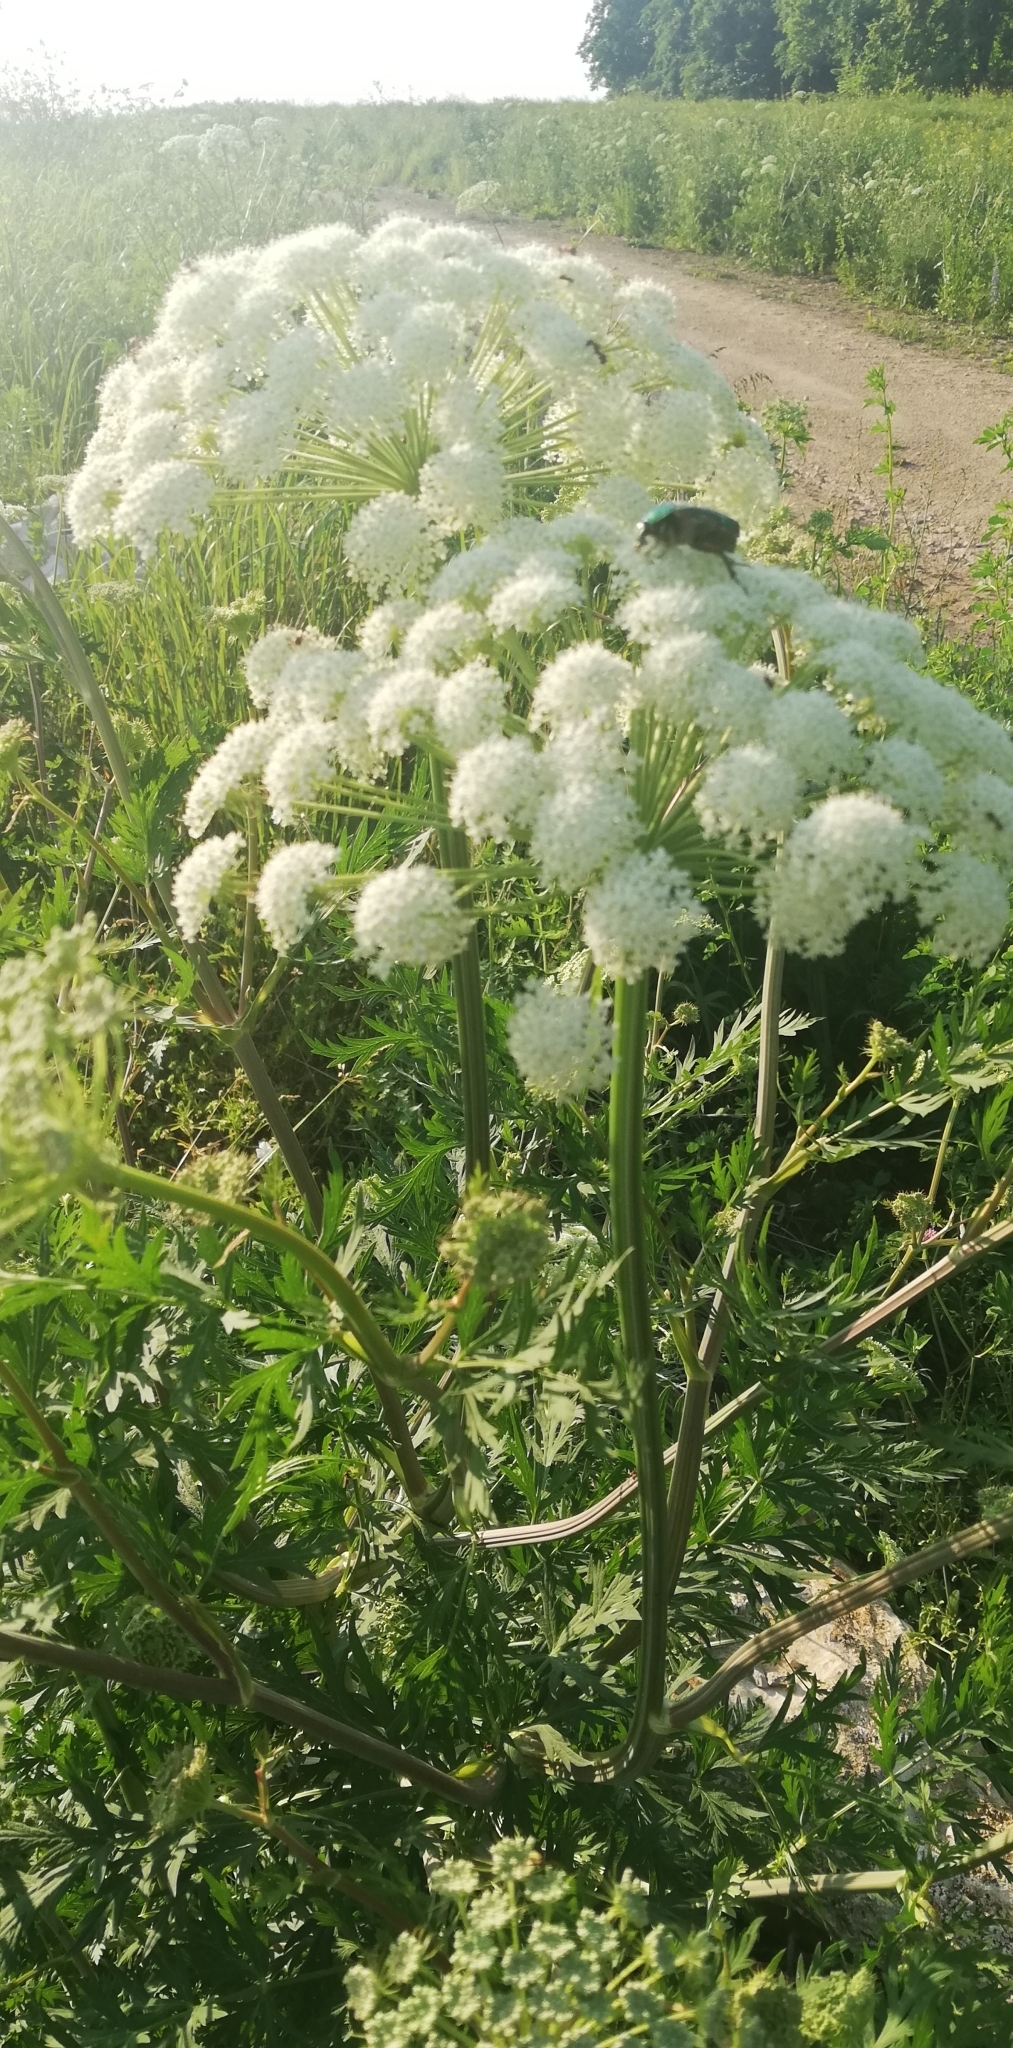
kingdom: Plantae
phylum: Tracheophyta
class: Magnoliopsida
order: Apiales
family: Apiaceae
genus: Seseli
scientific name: Seseli libanotis
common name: Mooncarrot
